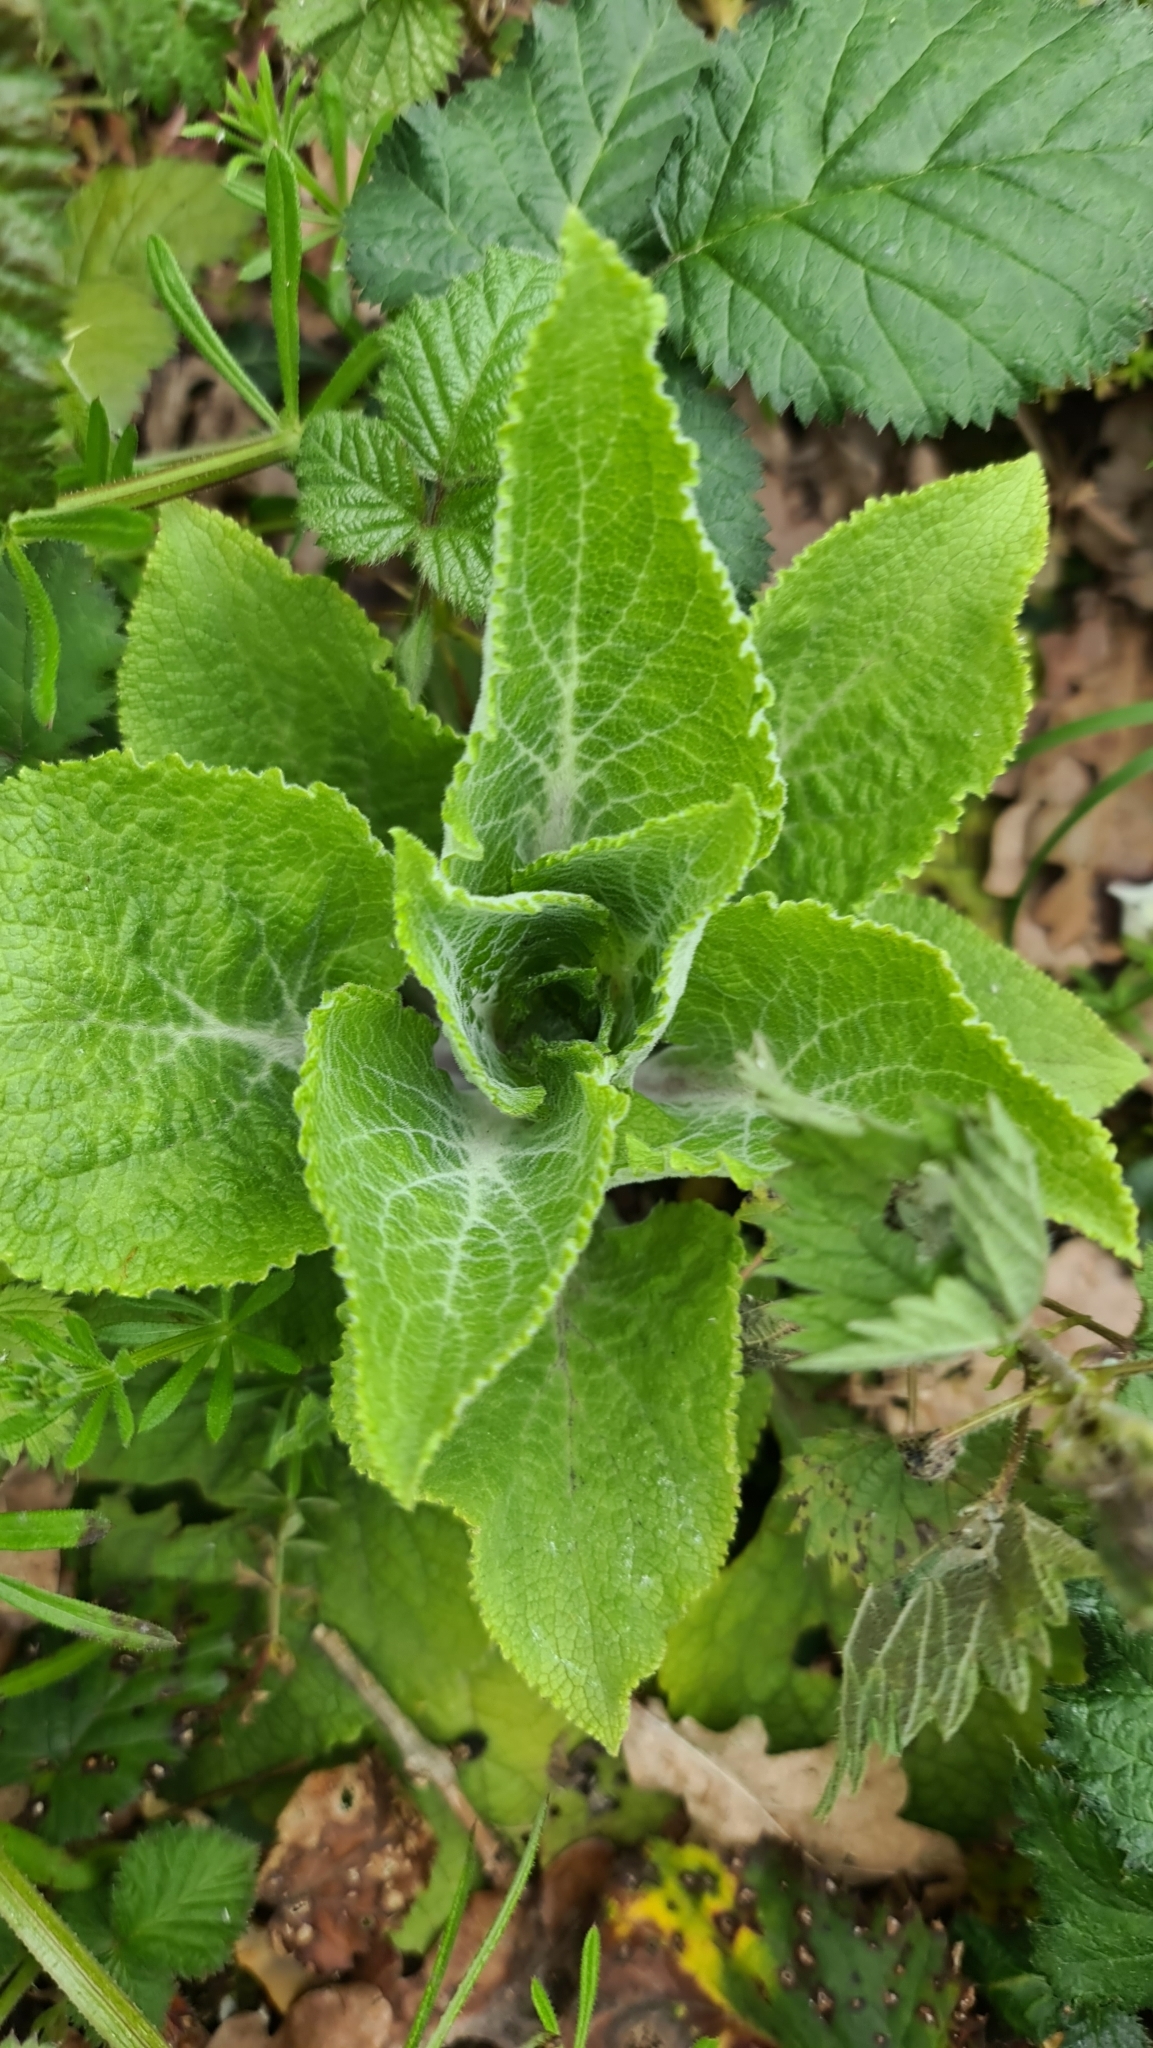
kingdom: Plantae
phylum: Tracheophyta
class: Magnoliopsida
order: Lamiales
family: Plantaginaceae
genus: Digitalis
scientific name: Digitalis purpurea
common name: Foxglove
